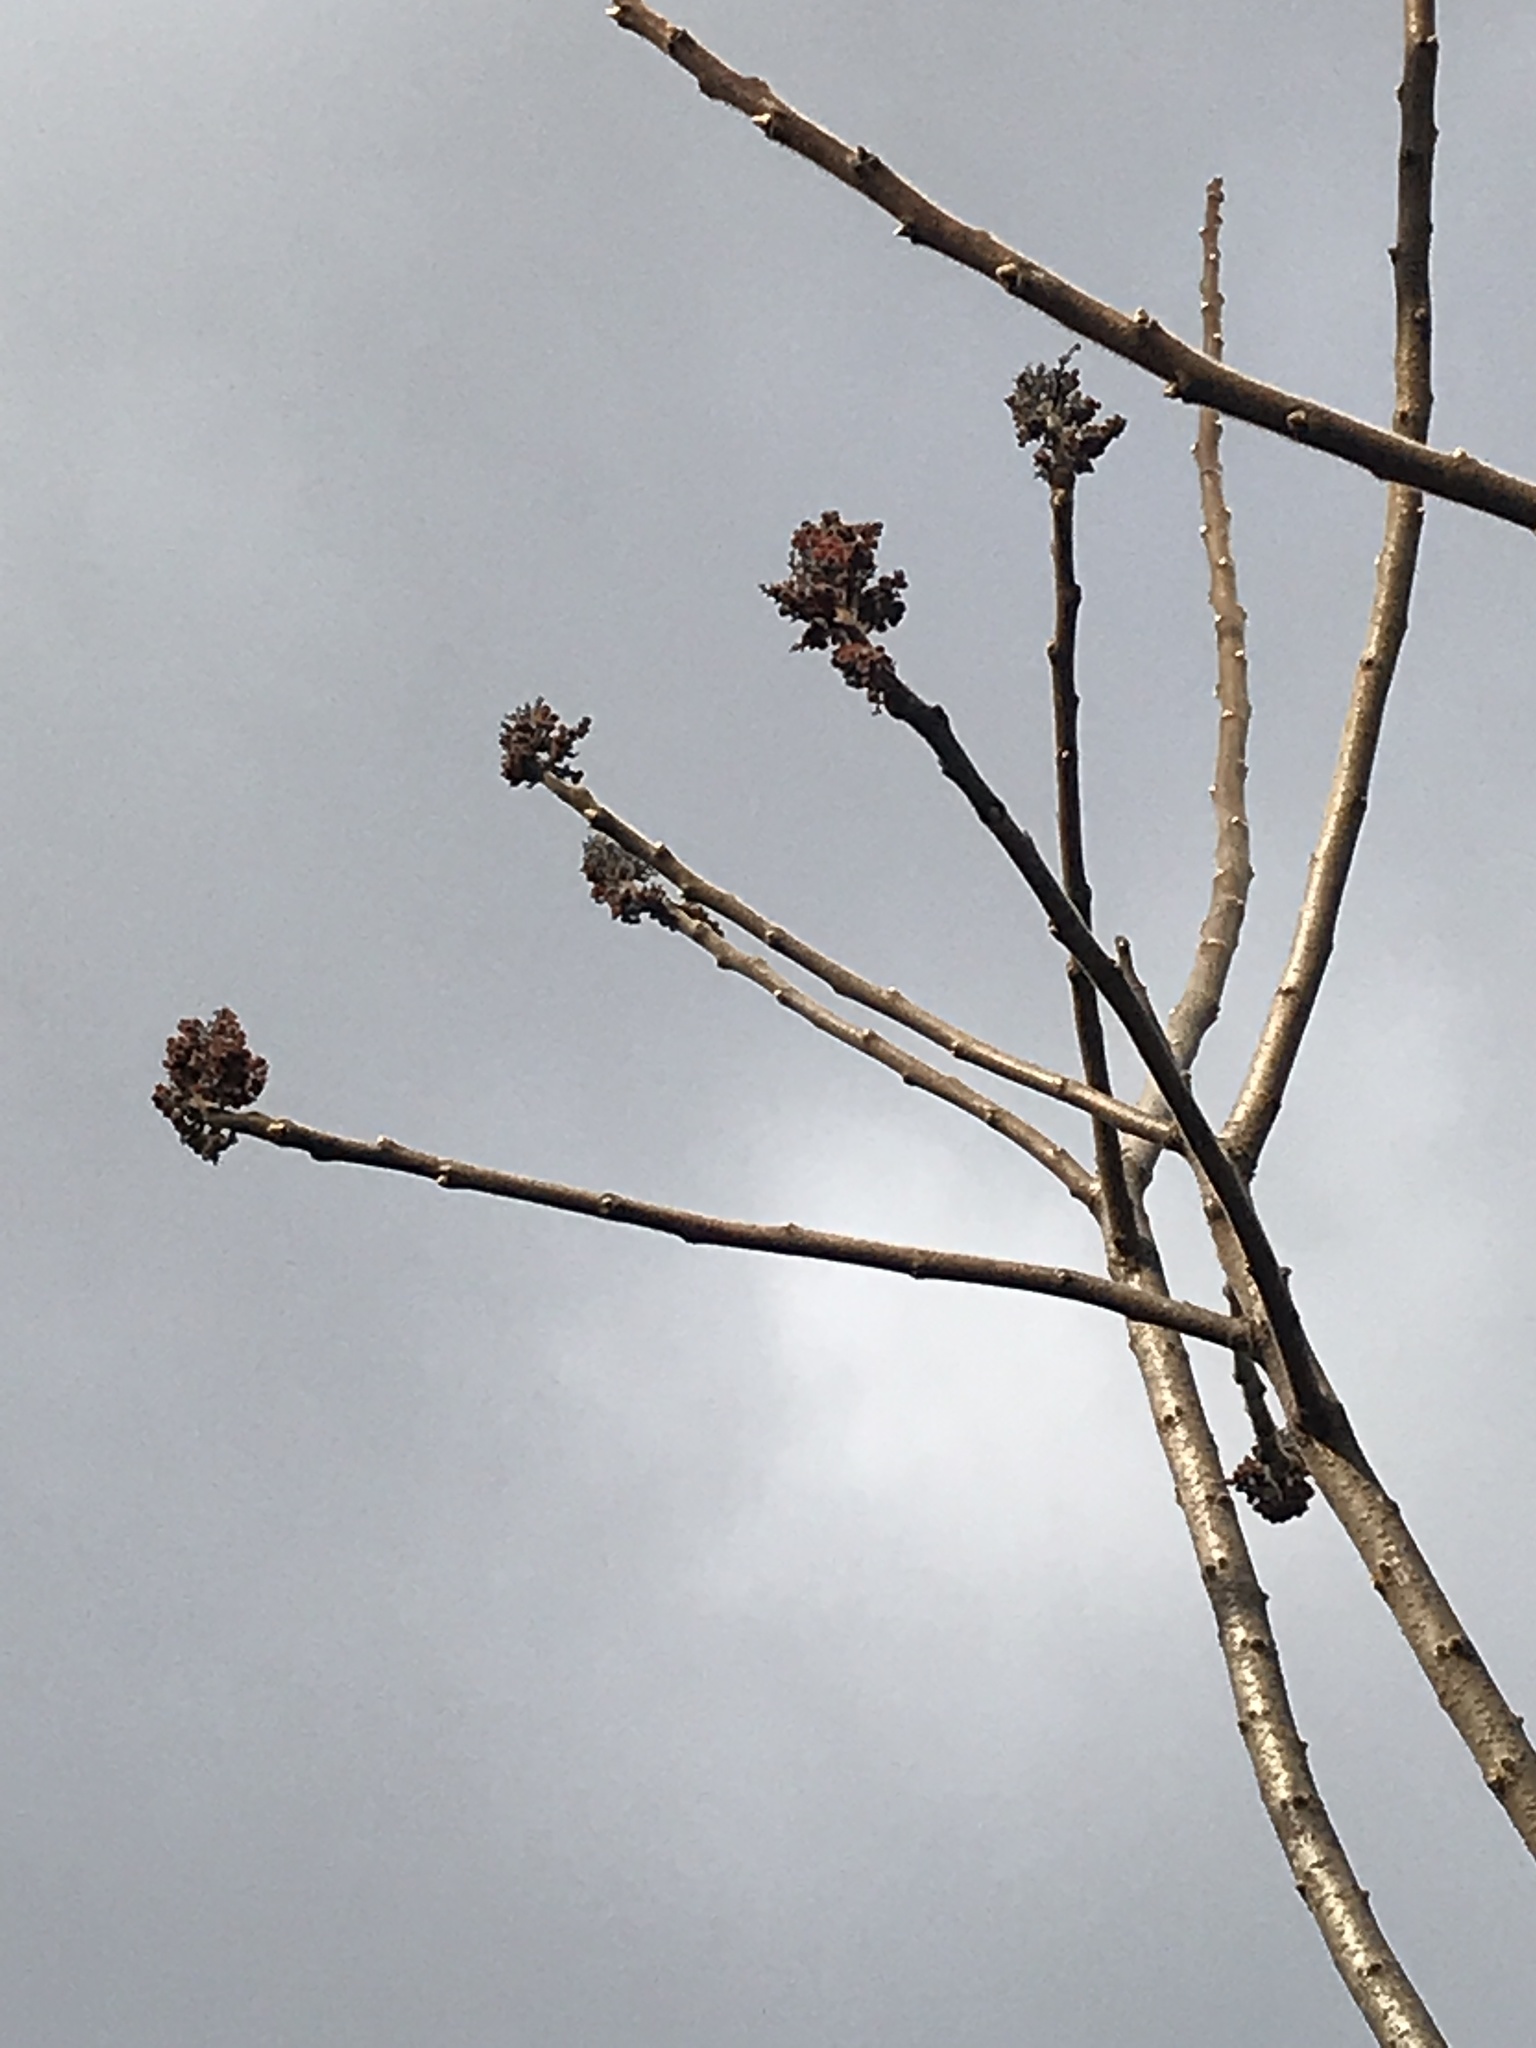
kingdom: Plantae
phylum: Tracheophyta
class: Magnoliopsida
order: Sapindales
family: Anacardiaceae
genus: Rhus
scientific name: Rhus typhina
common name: Staghorn sumac
